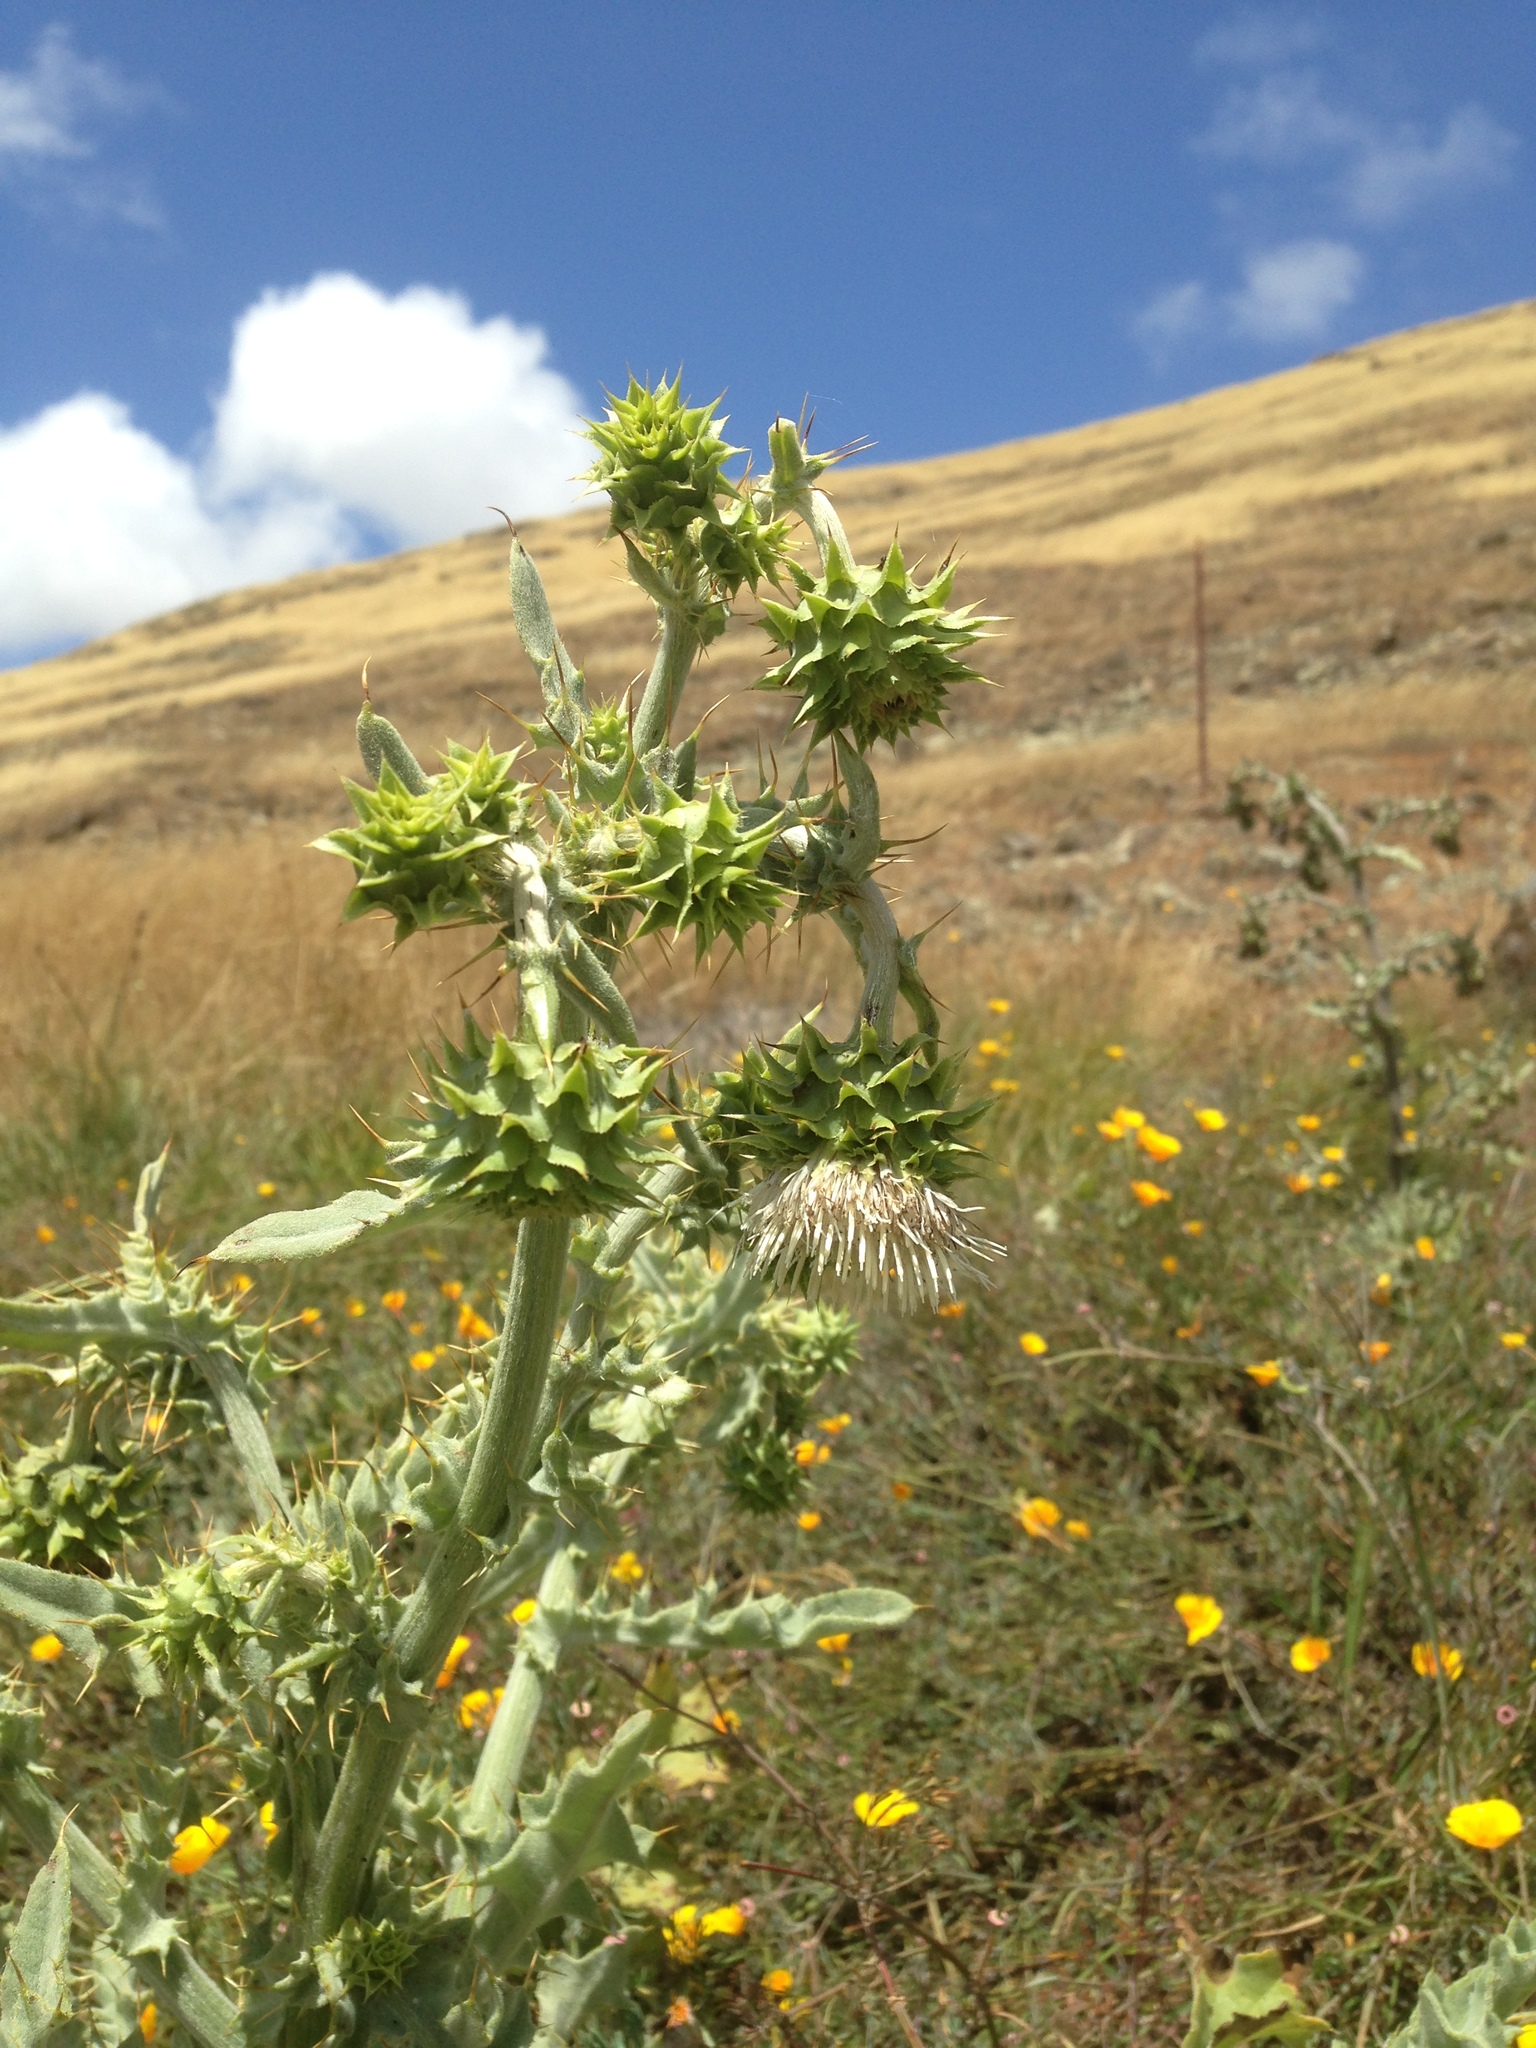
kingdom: Plantae
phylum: Tracheophyta
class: Magnoliopsida
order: Asterales
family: Asteraceae
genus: Cirsium
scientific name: Cirsium fontinale
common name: Fountain thistle
